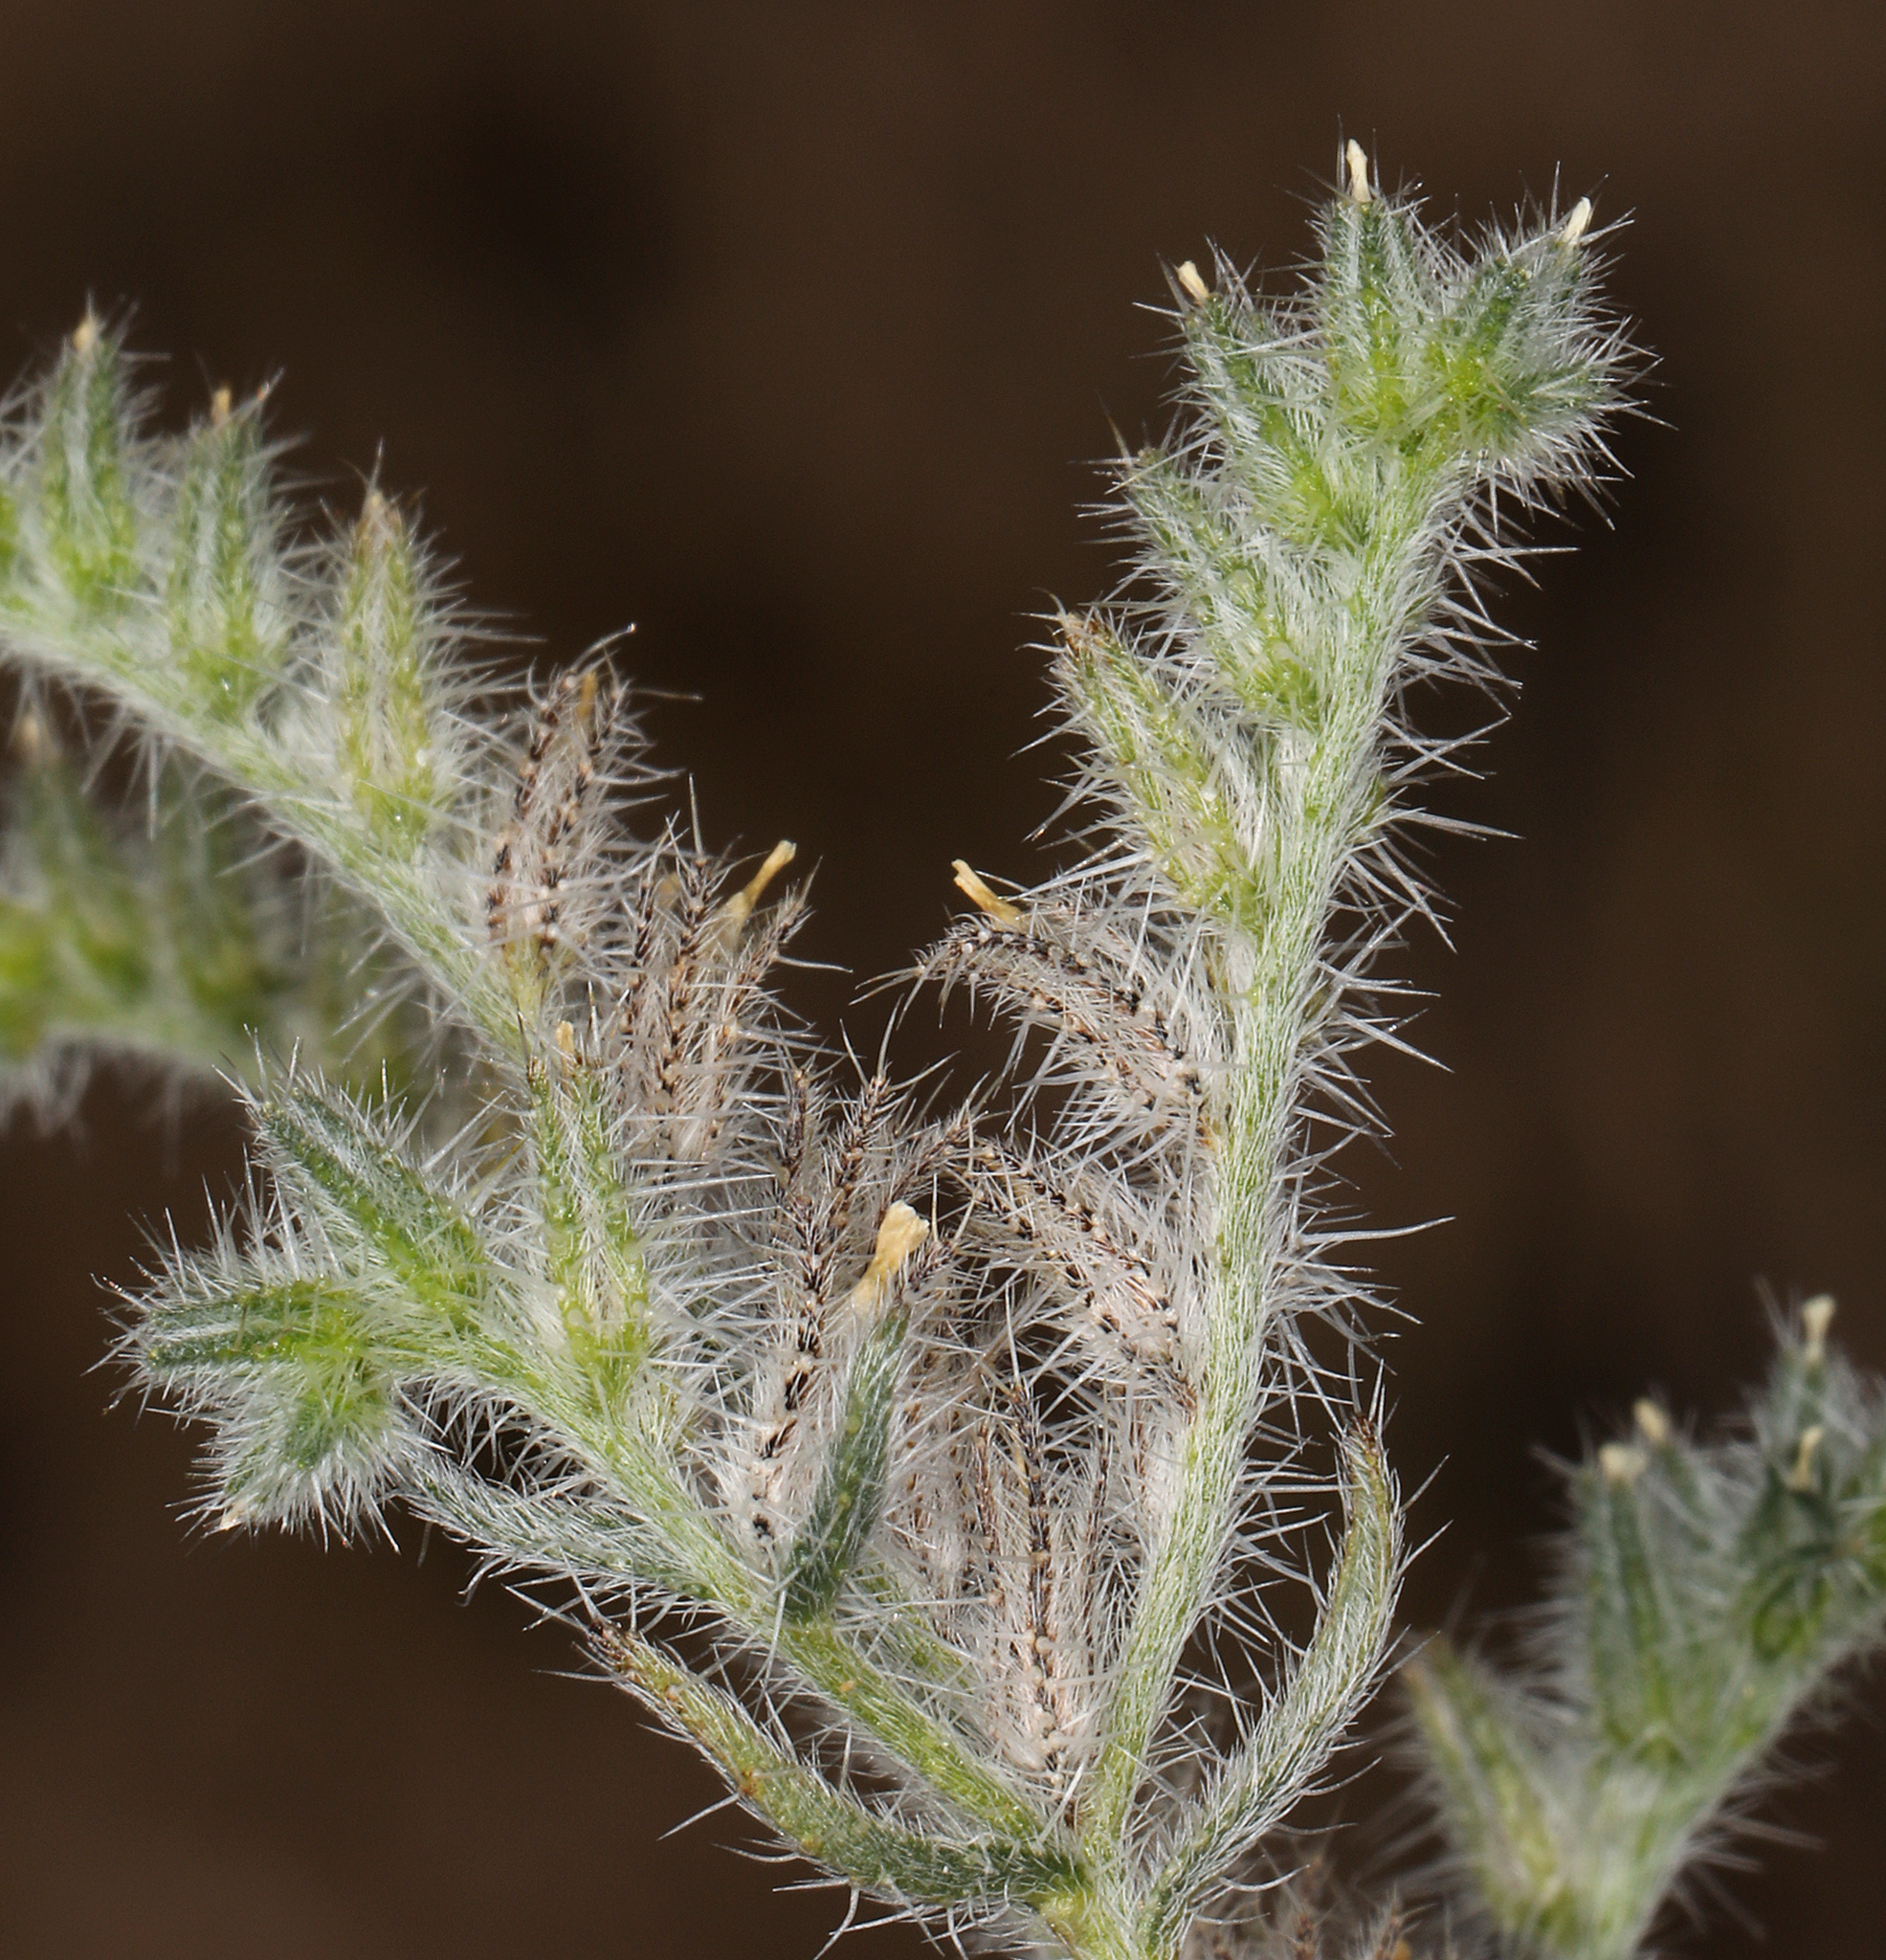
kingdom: Plantae
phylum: Tracheophyta
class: Magnoliopsida
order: Boraginales
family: Boraginaceae
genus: Cryptantha
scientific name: Cryptantha echinella
